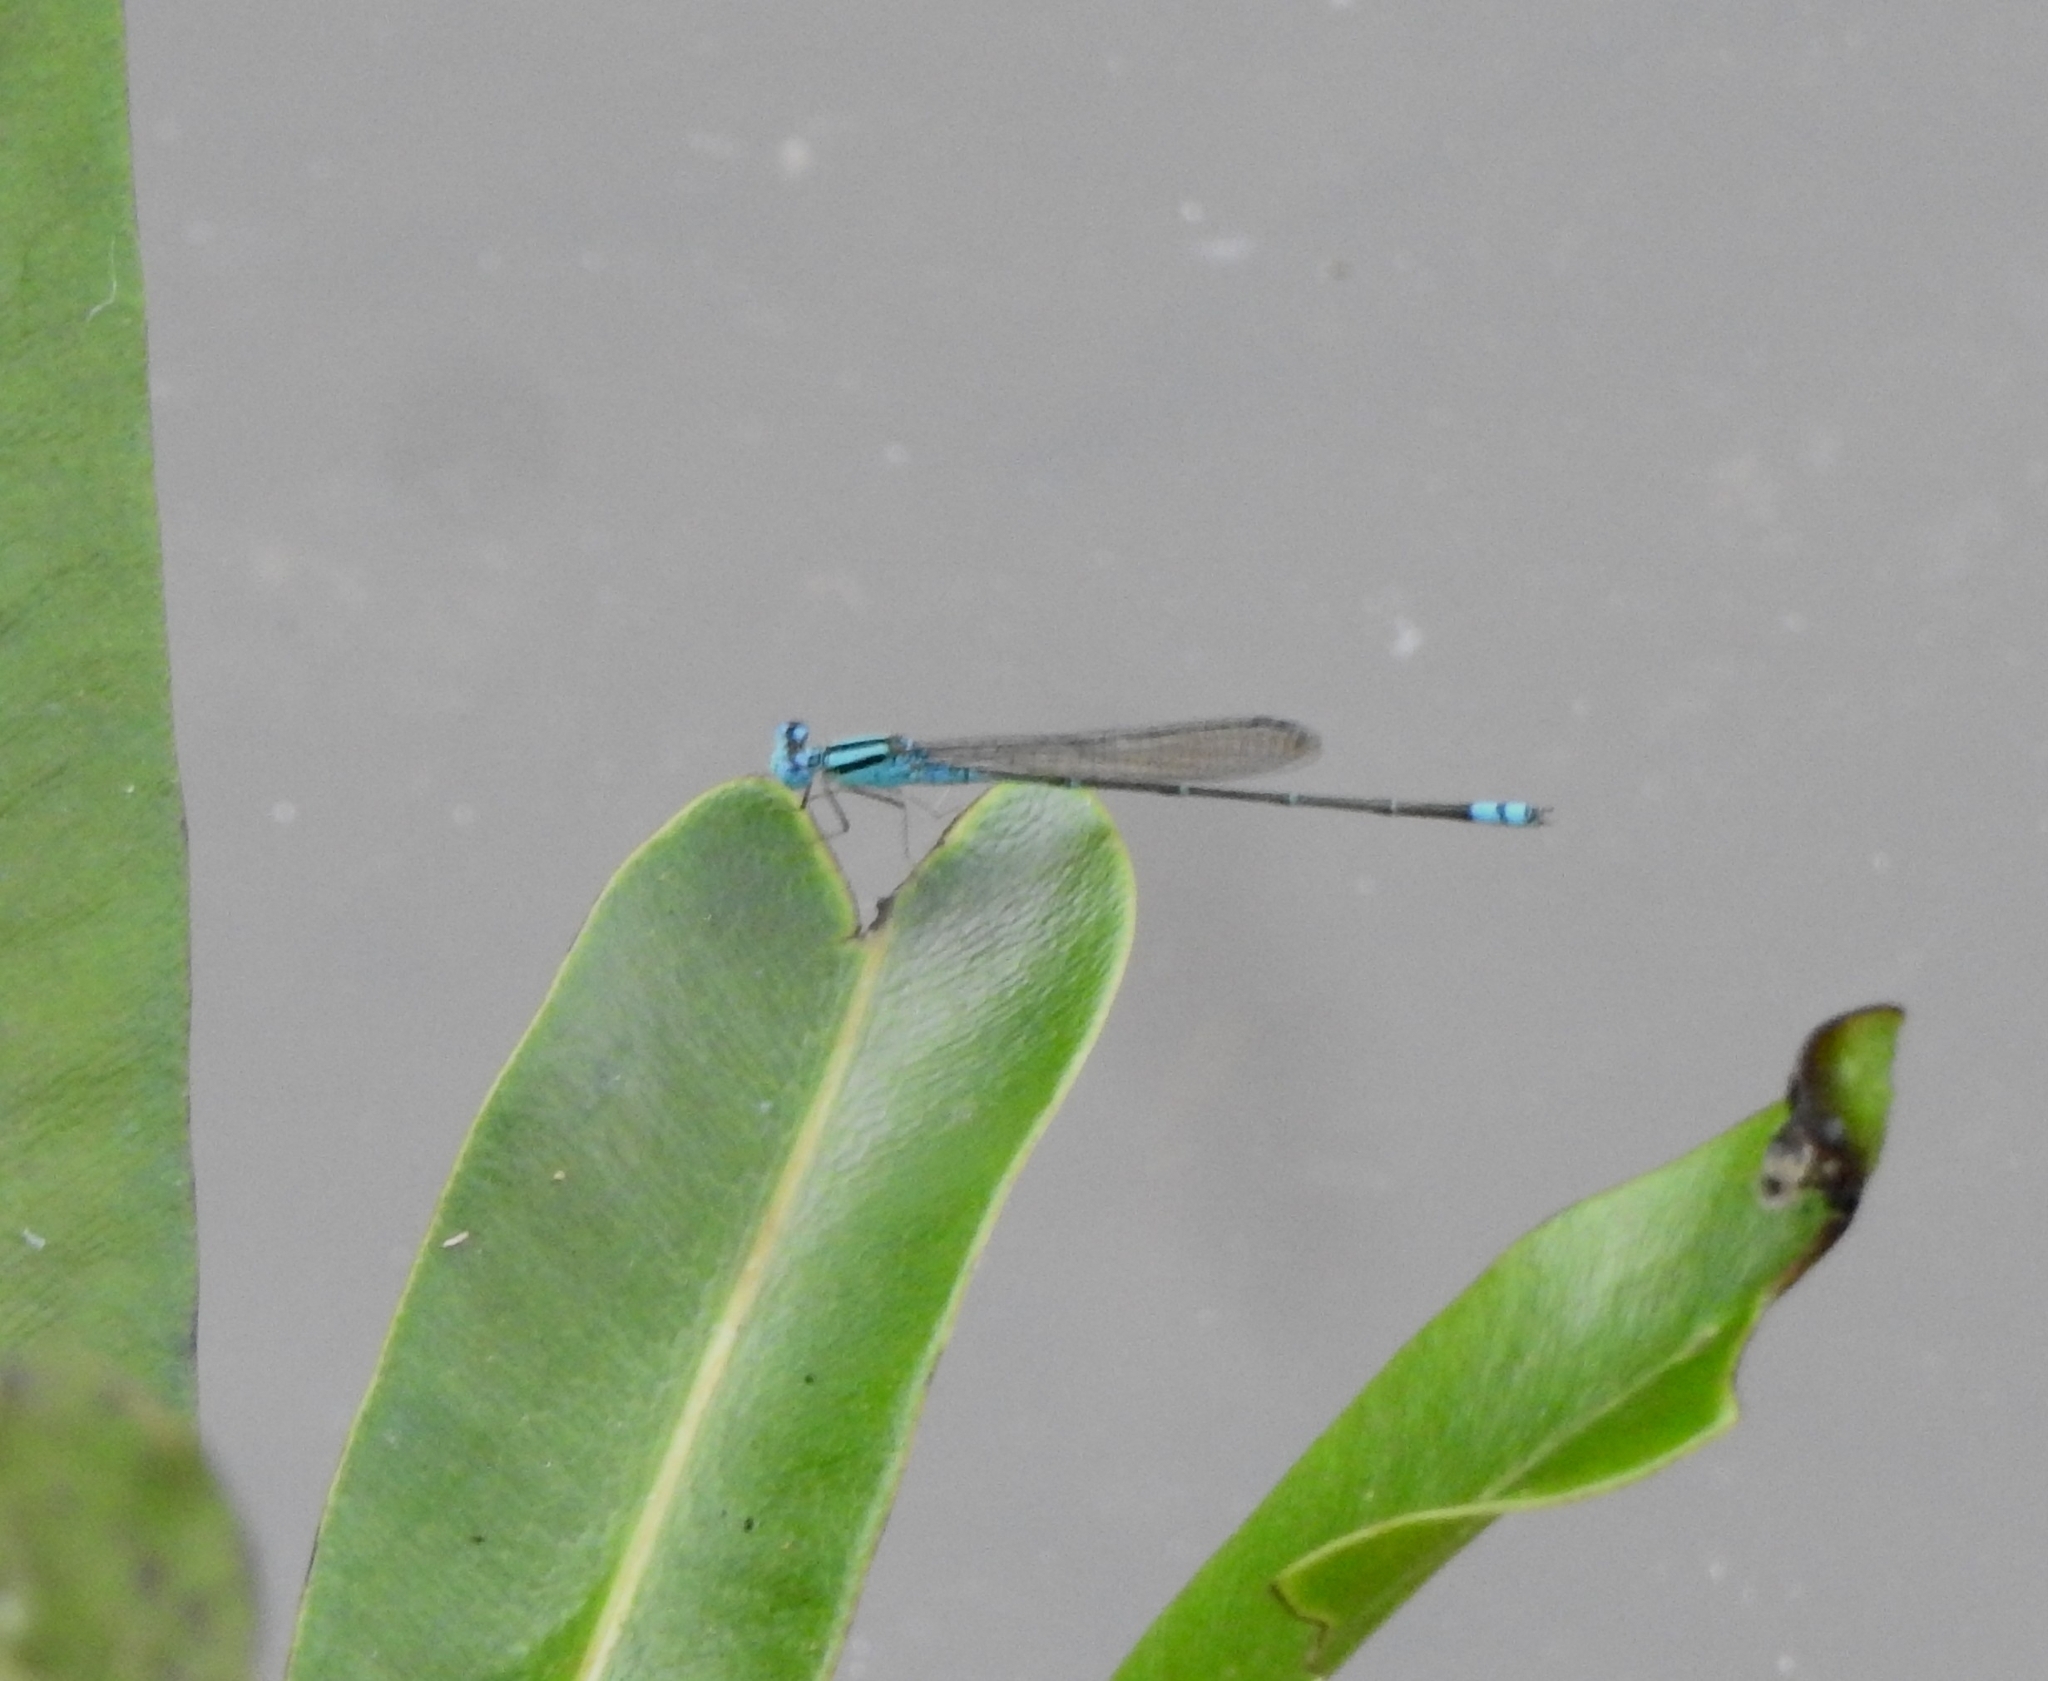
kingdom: Animalia
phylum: Arthropoda
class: Insecta
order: Odonata
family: Coenagrionidae
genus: Pseudagrion
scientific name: Pseudagrion microcephalum
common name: Blue riverdamsel
